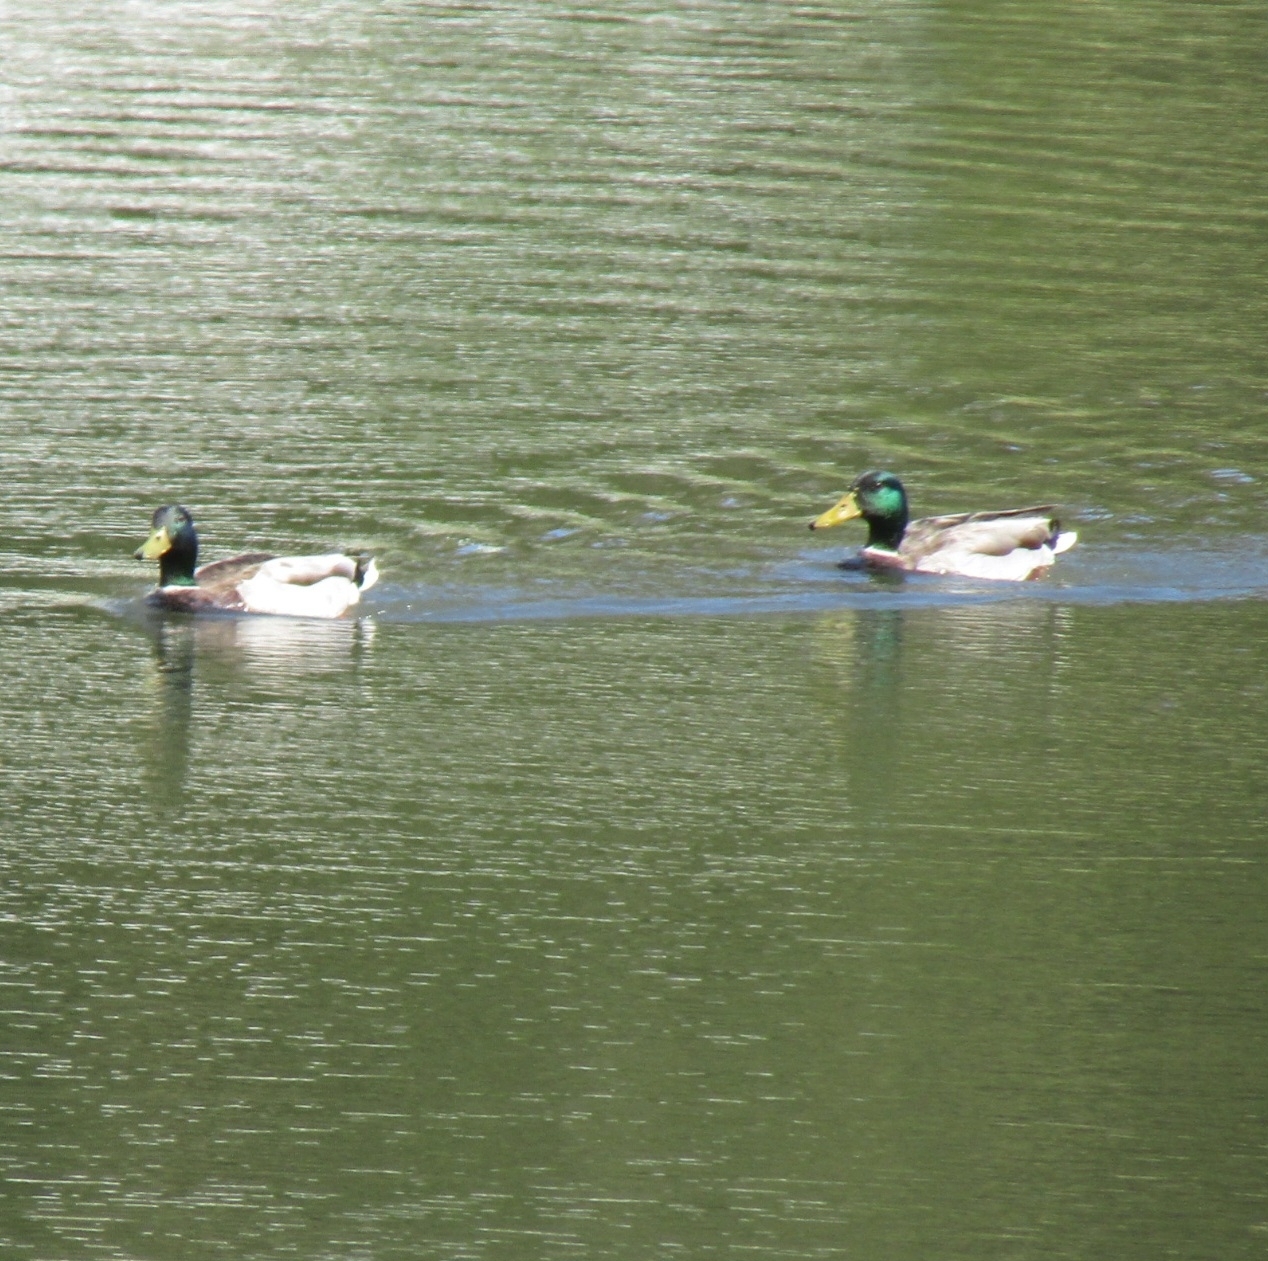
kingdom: Animalia
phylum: Chordata
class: Aves
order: Anseriformes
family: Anatidae
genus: Anas
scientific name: Anas platyrhynchos
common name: Mallard
